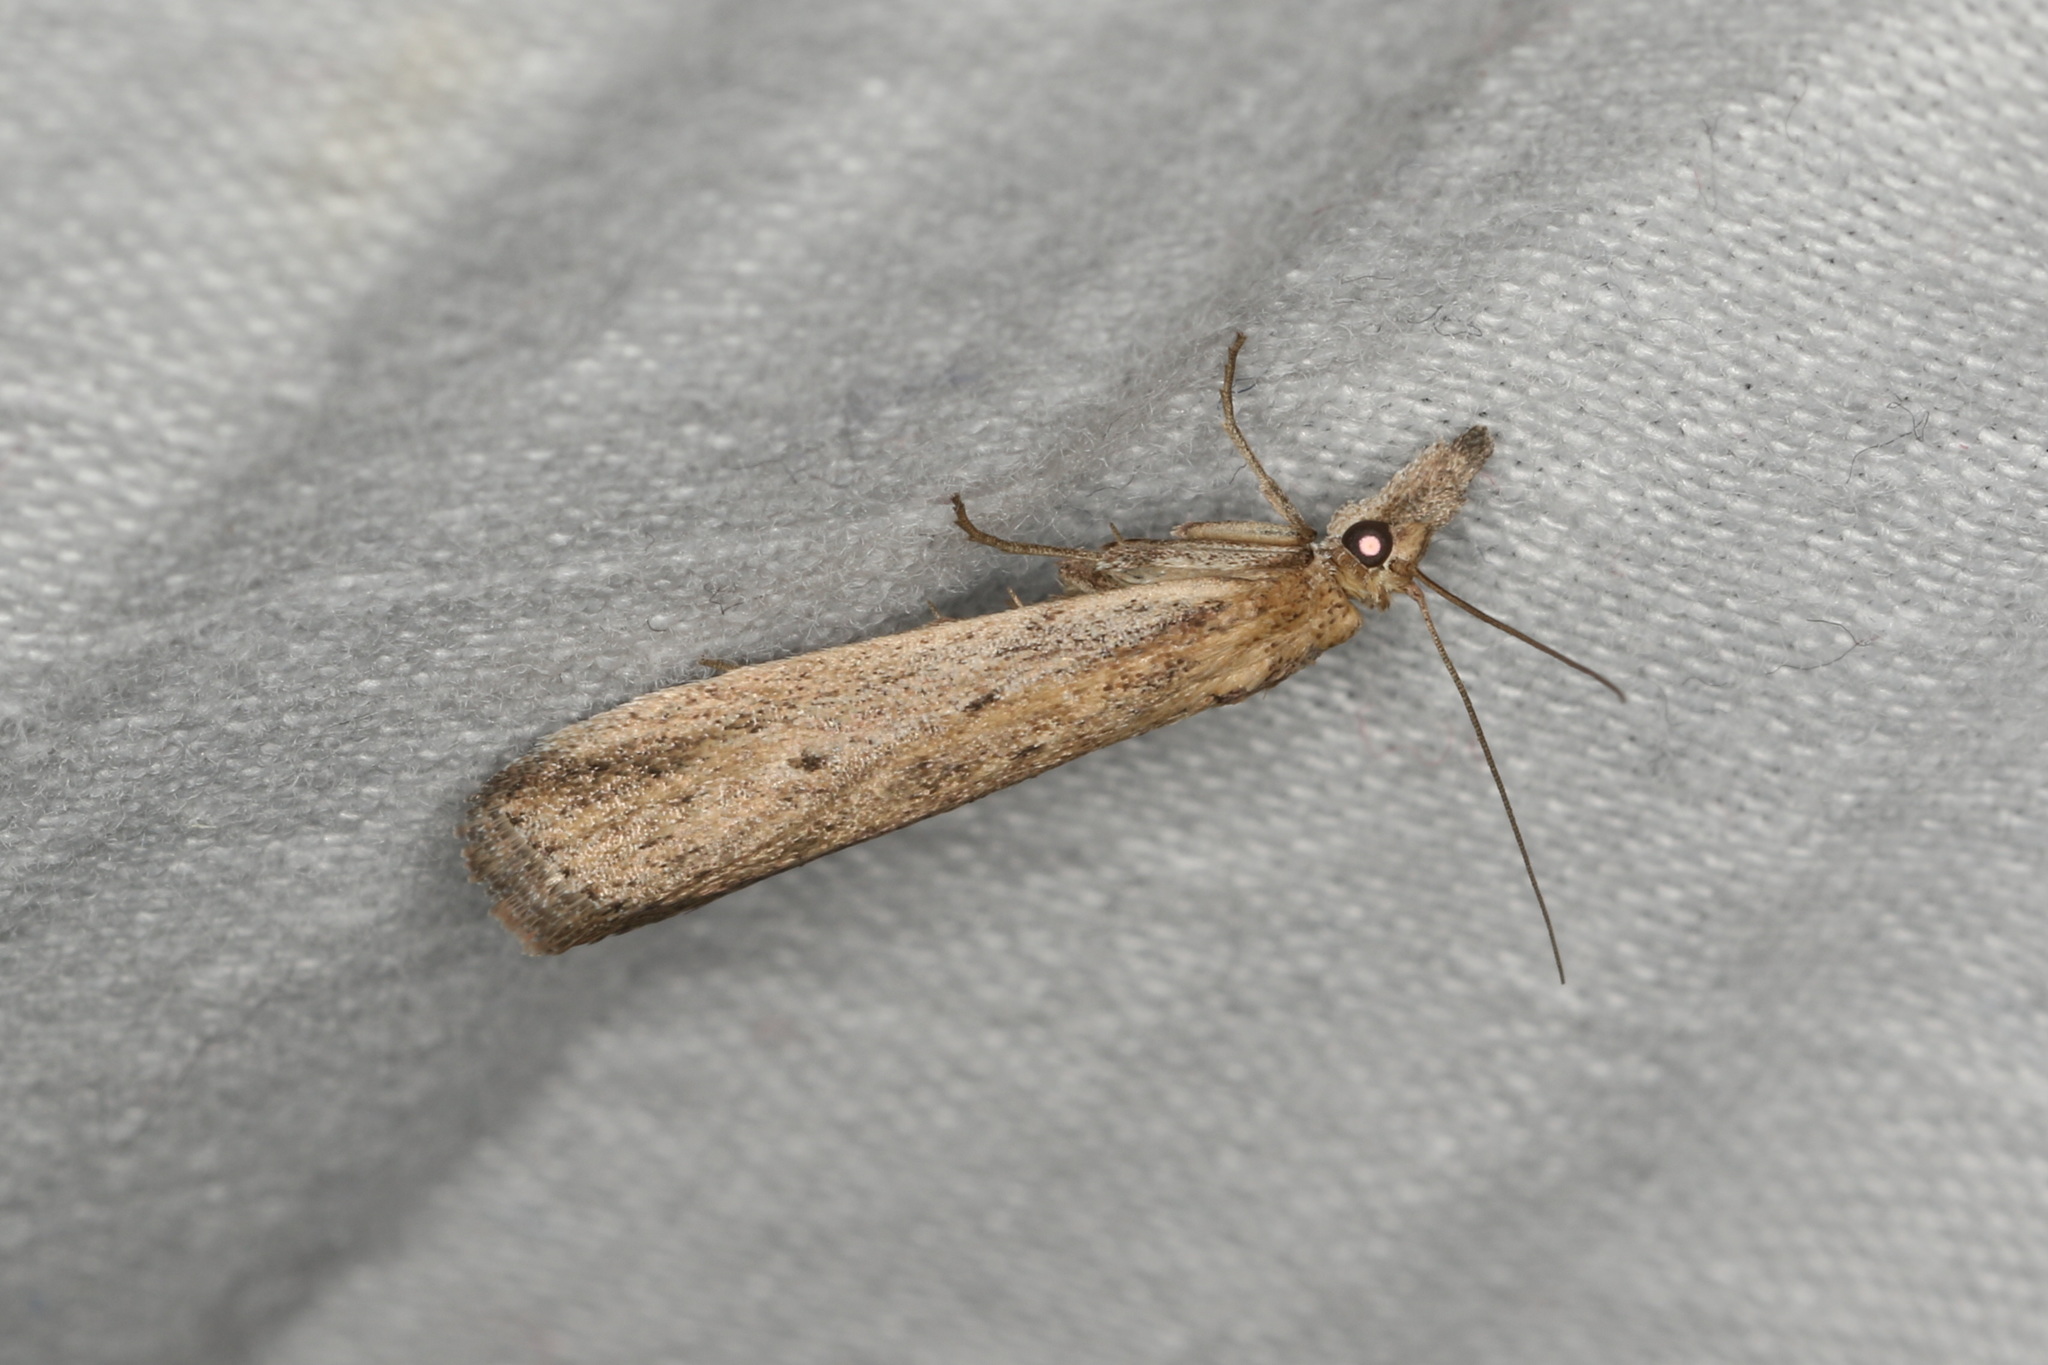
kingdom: Animalia
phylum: Arthropoda
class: Insecta
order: Lepidoptera
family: Pyralidae
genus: Faveria
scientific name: Faveria tritalis
